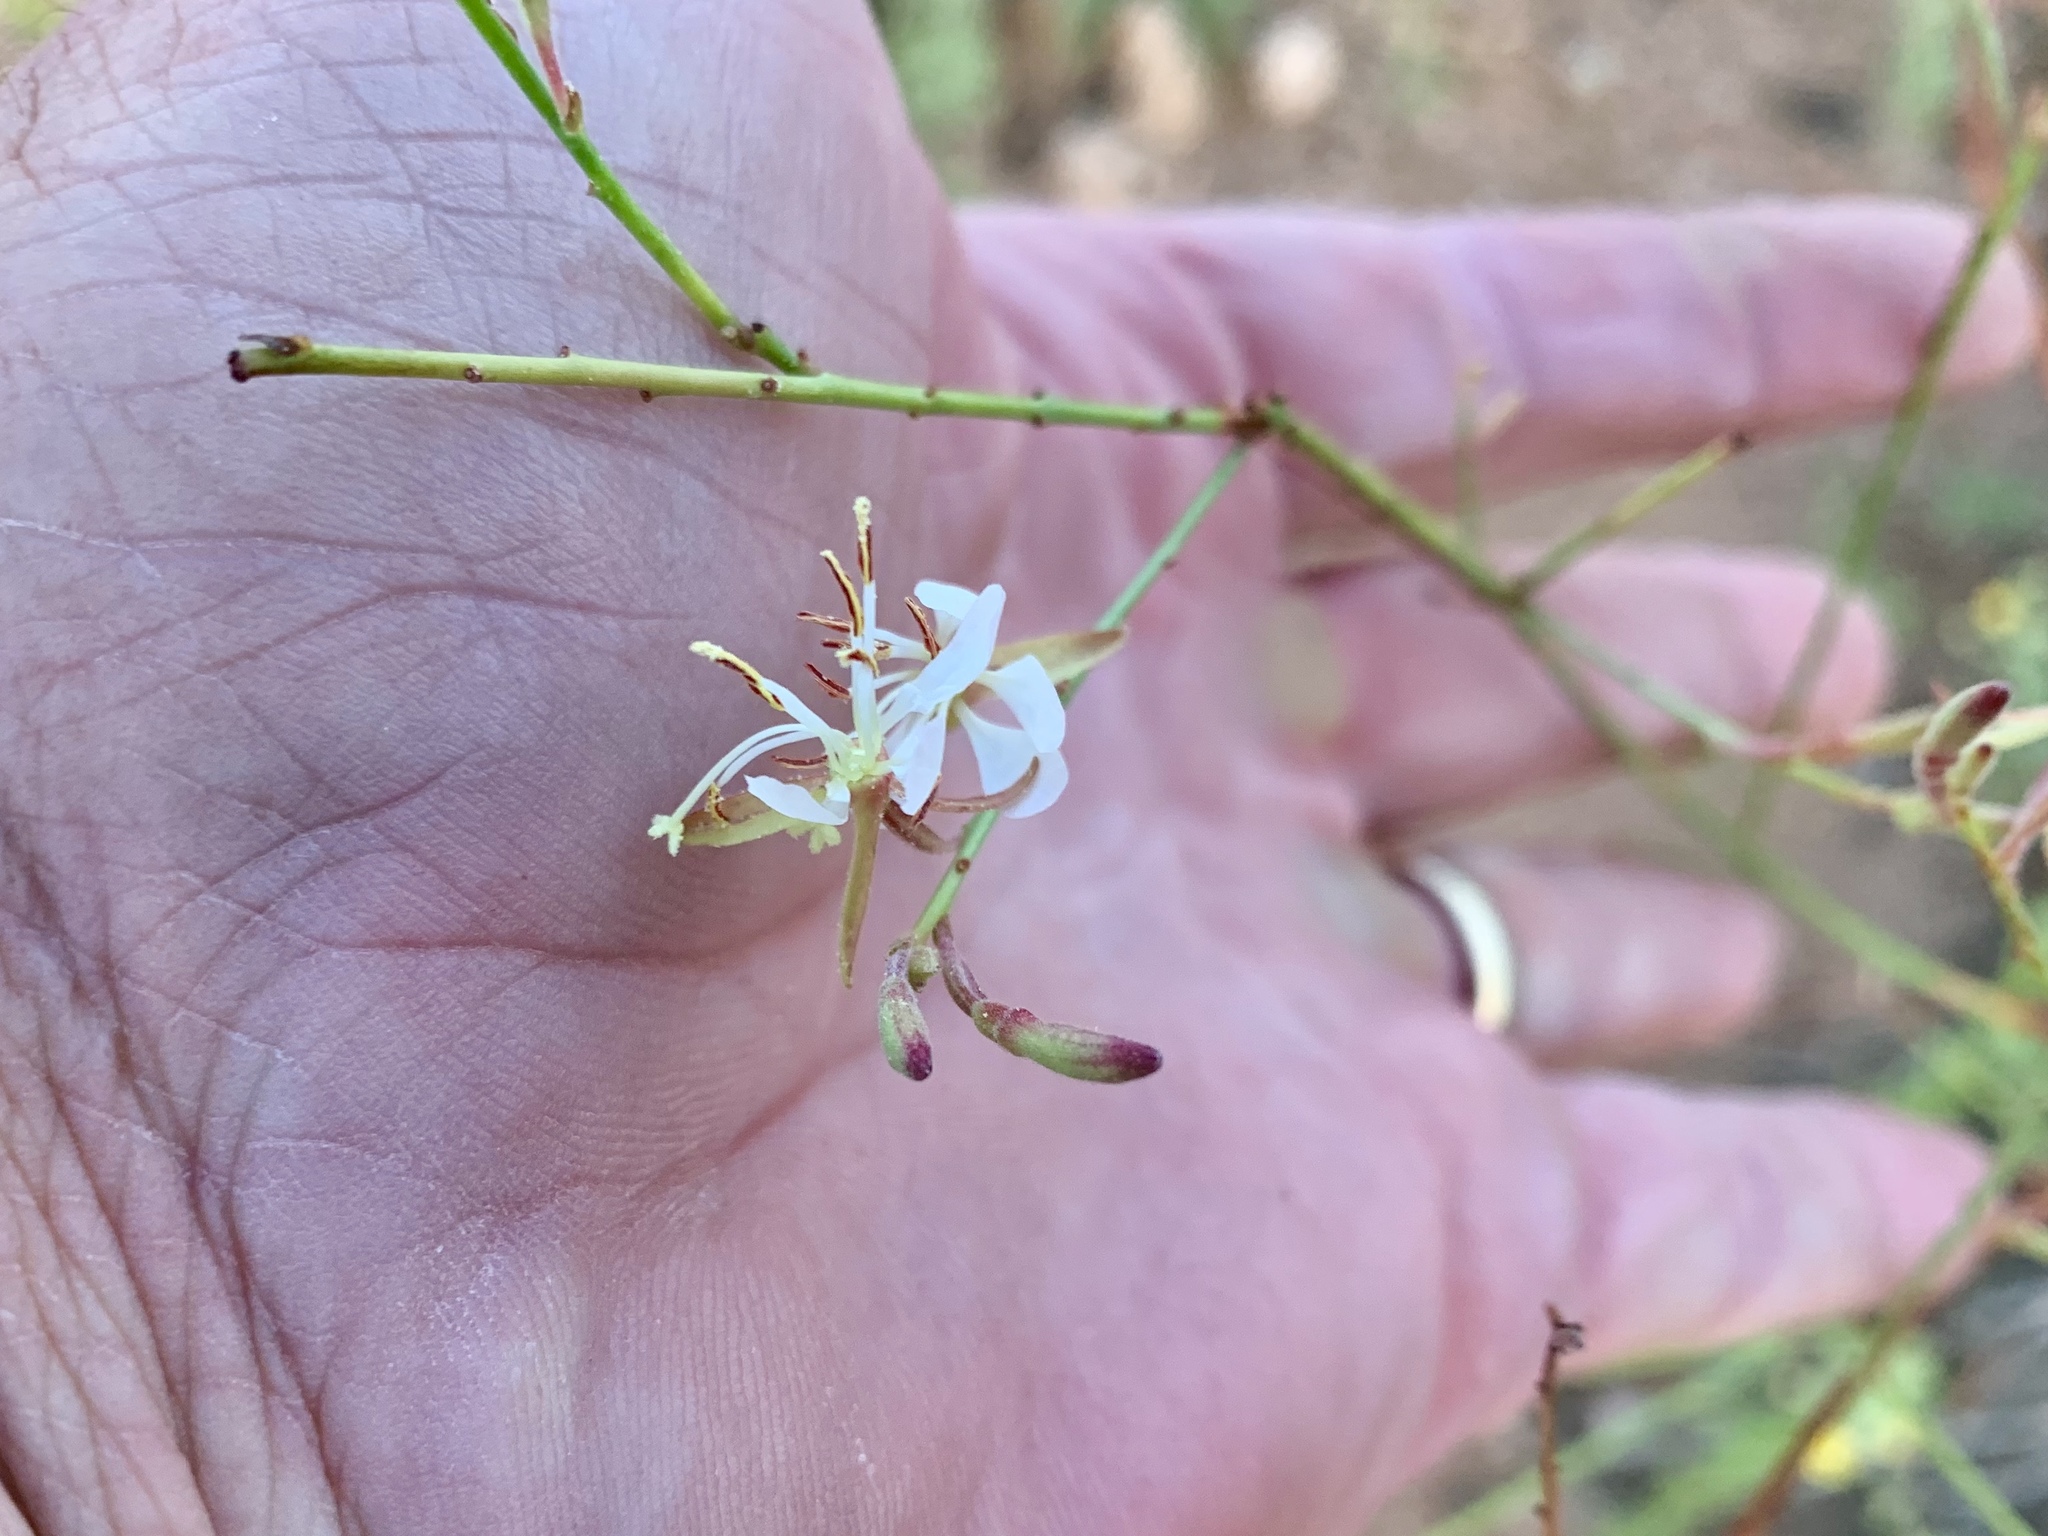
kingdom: Plantae
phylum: Tracheophyta
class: Magnoliopsida
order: Myrtales
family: Onagraceae
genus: Oenothera
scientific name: Oenothera cinerea
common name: Woolly beeblossom
